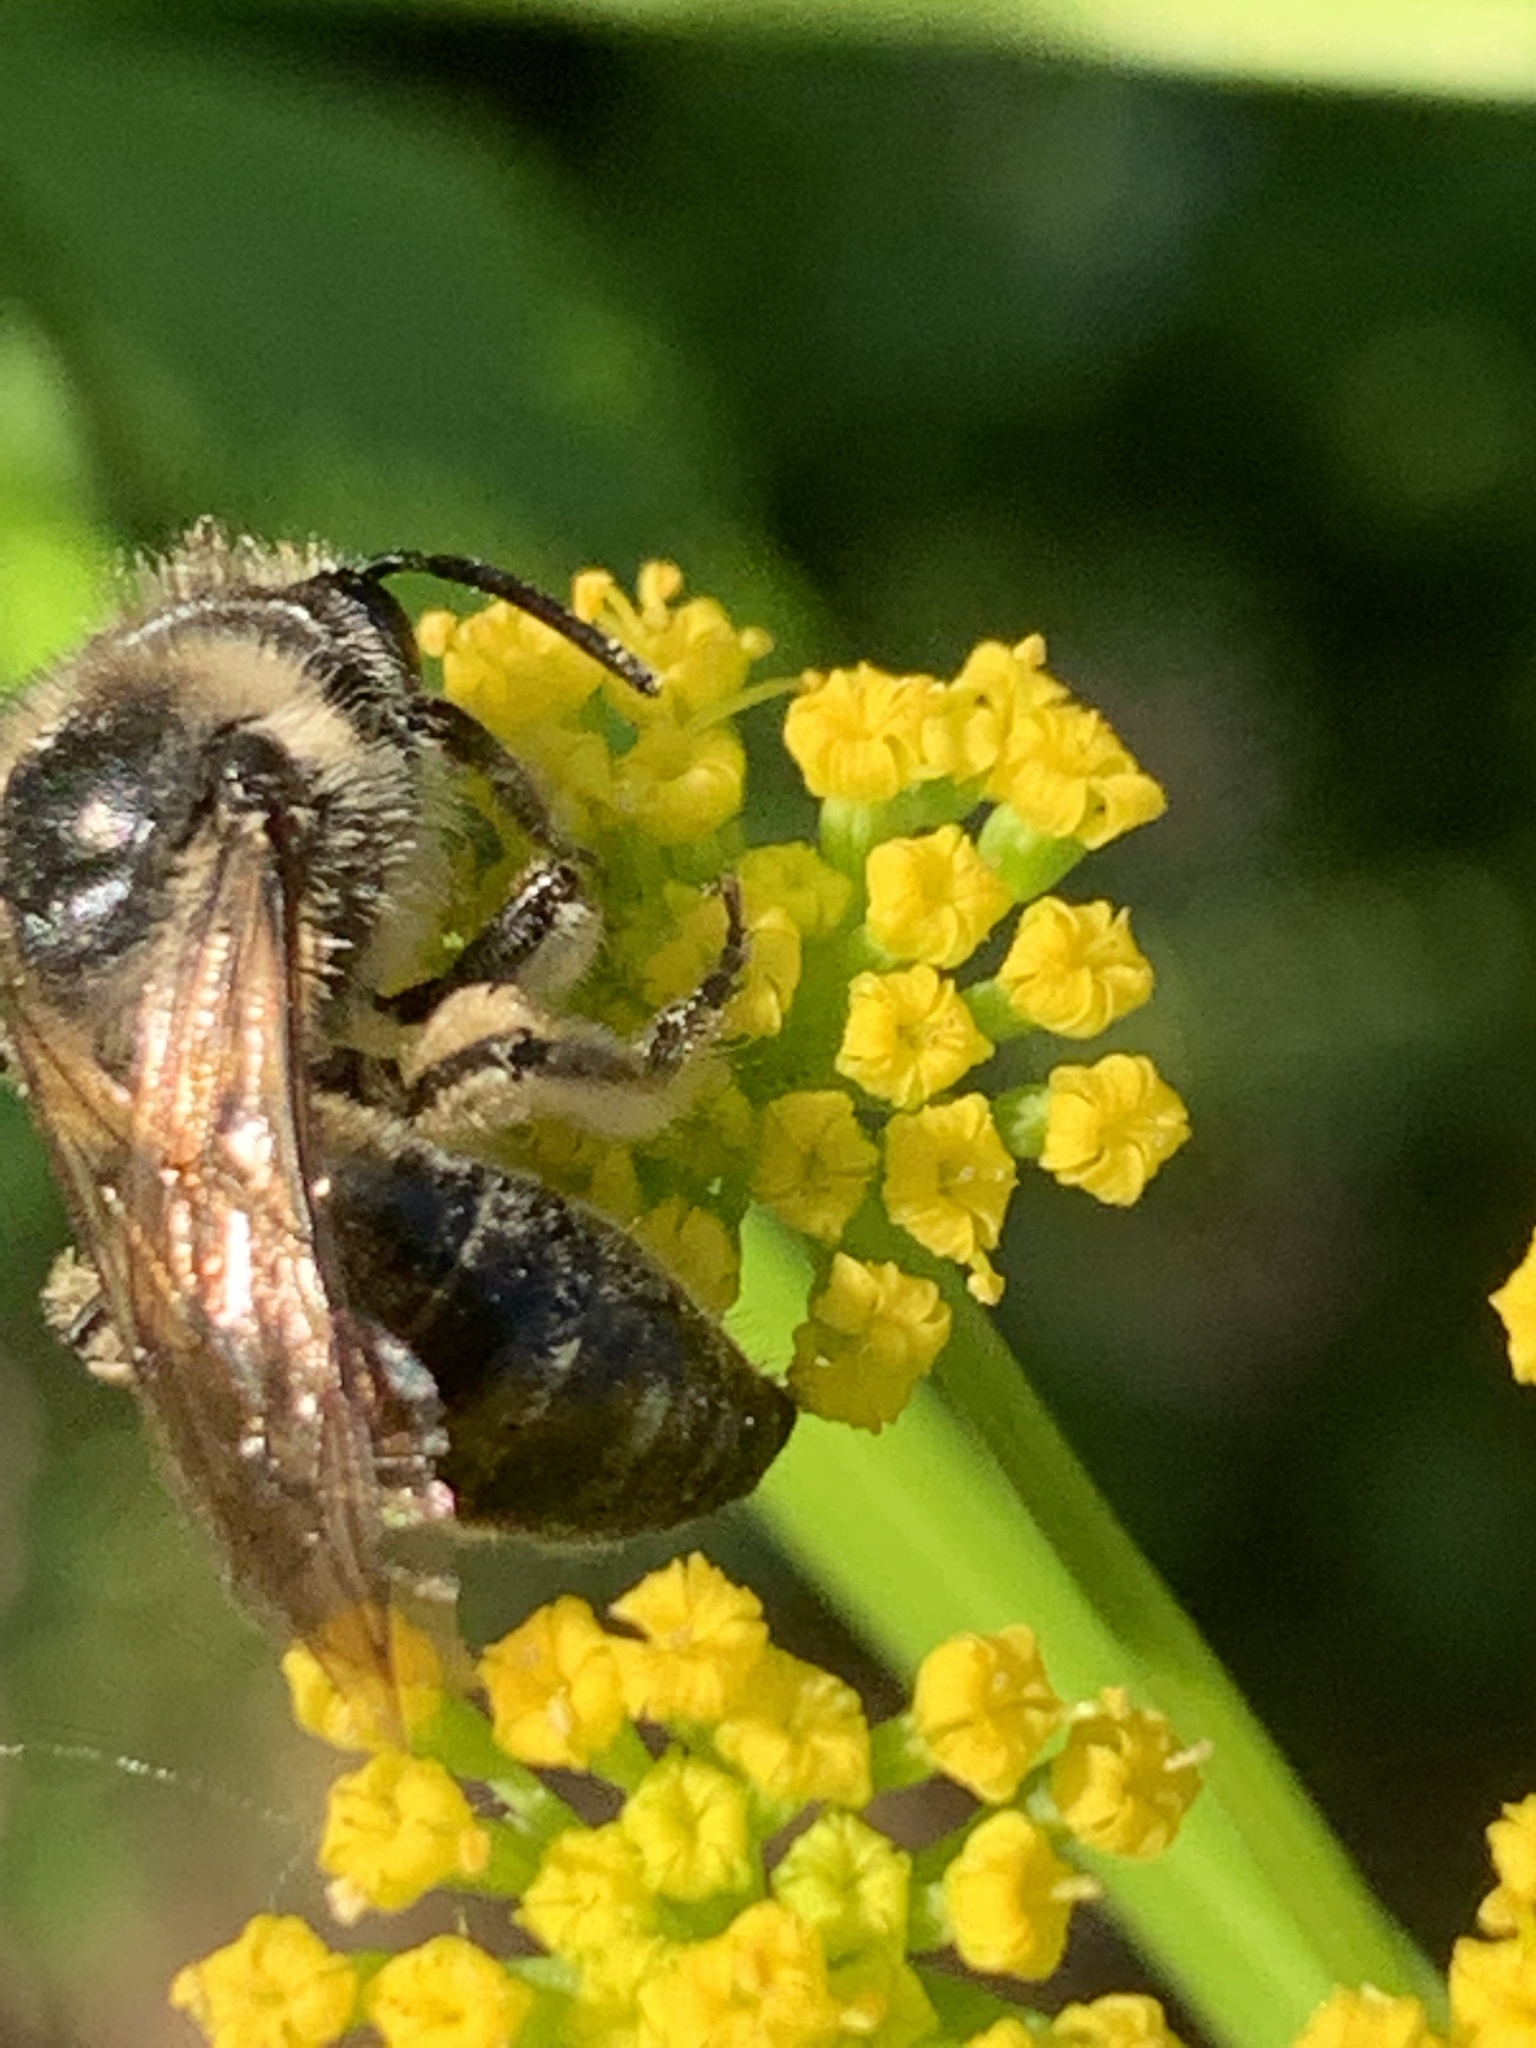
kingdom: Animalia
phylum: Arthropoda
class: Insecta
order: Hymenoptera
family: Colletidae
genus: Colletes
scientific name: Colletes inaequalis
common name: Unequal cellophane bee
